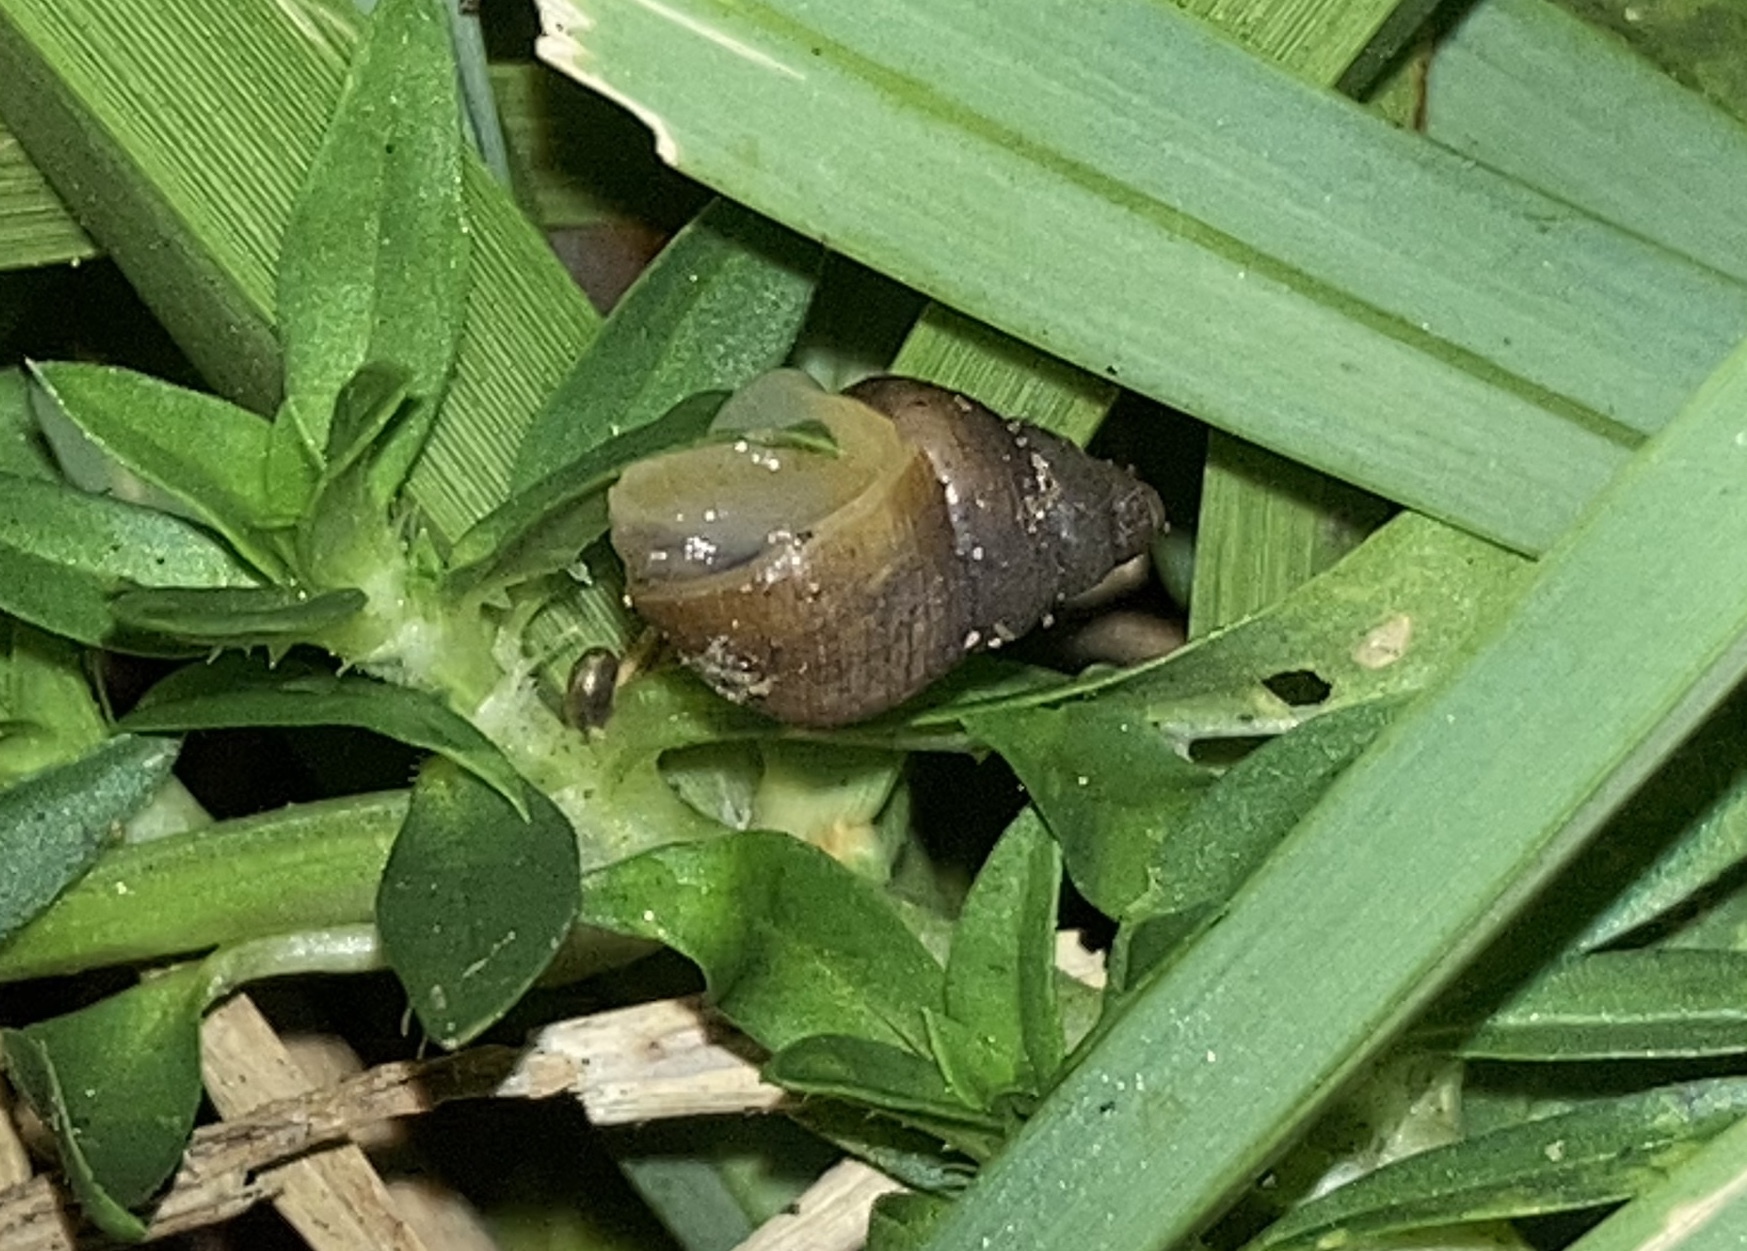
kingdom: Animalia
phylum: Mollusca
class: Gastropoda
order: Stylommatophora
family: Bulimulidae
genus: Bulimulus
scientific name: Bulimulus guadalupensis
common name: West indian bulimulus
